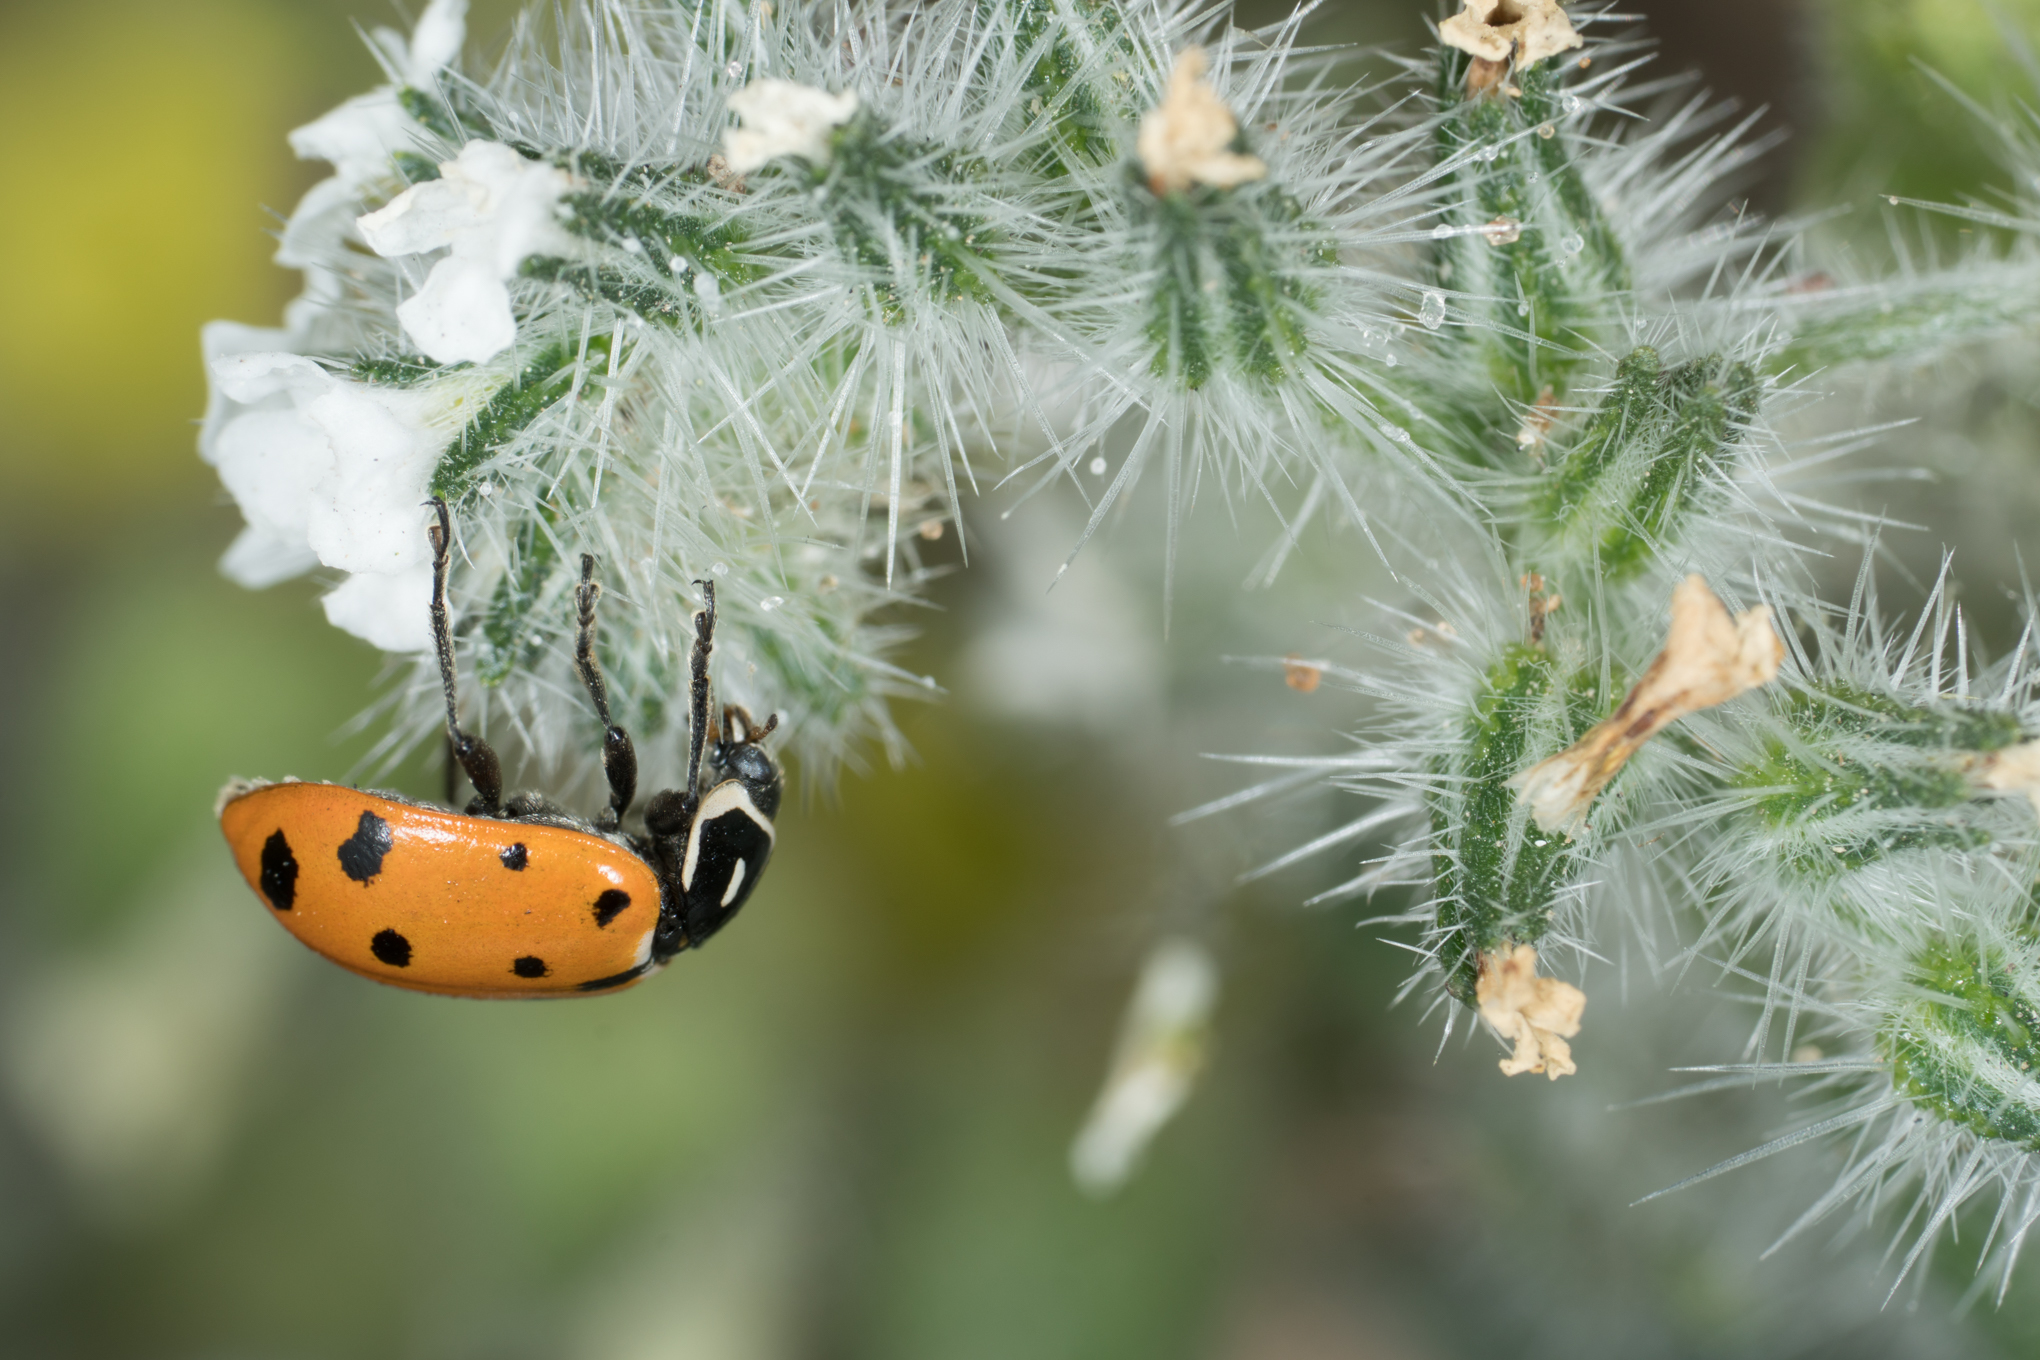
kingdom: Animalia
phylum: Arthropoda
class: Insecta
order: Coleoptera
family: Coccinellidae
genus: Hippodamia
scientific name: Hippodamia convergens
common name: Convergent lady beetle
